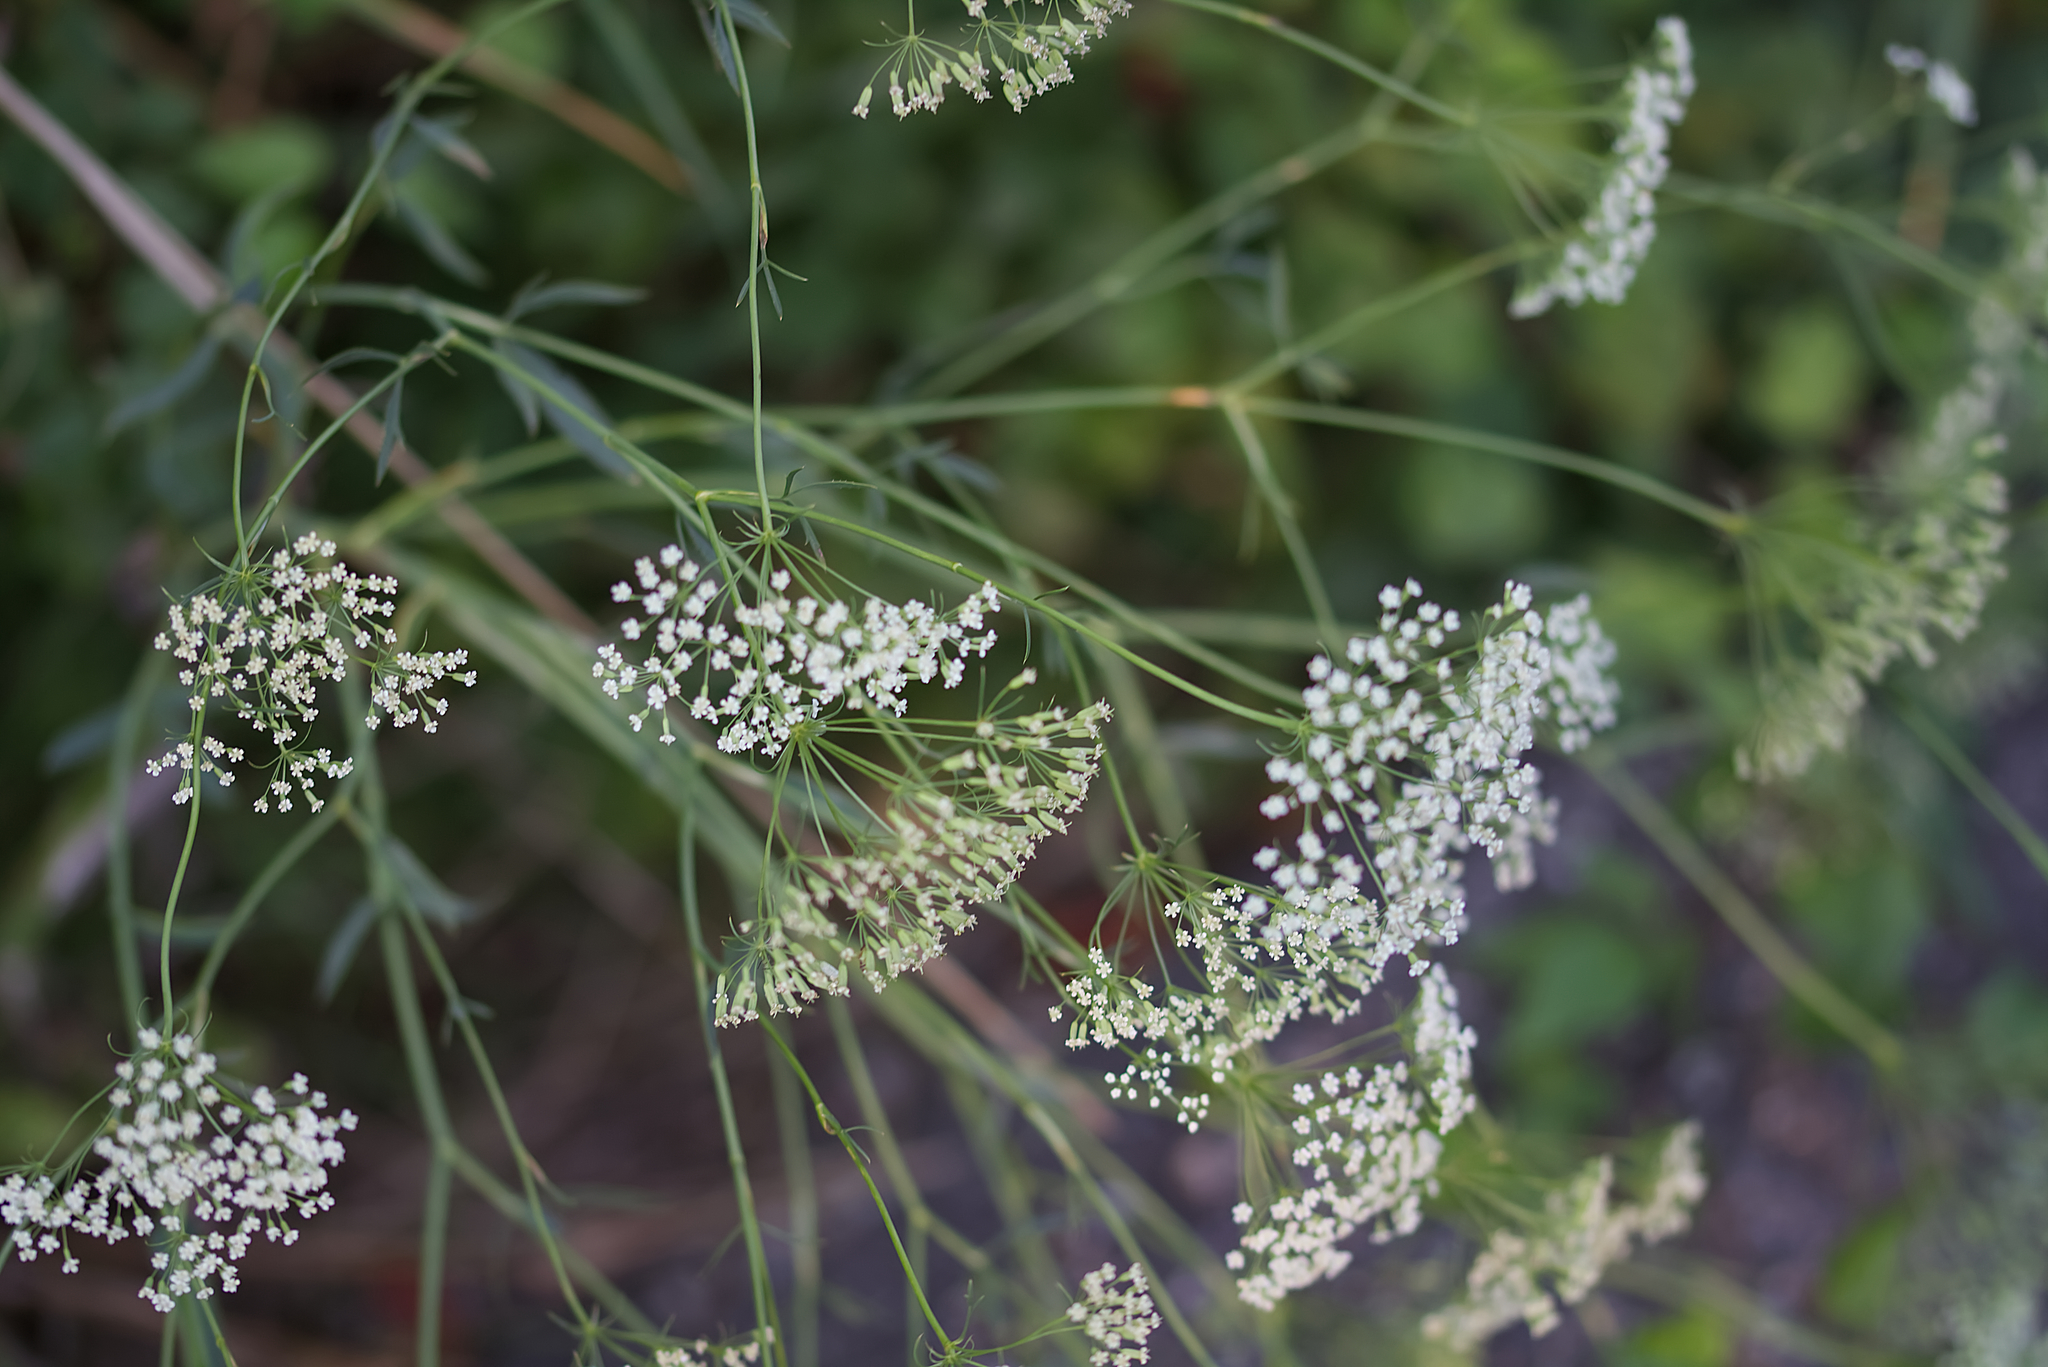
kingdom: Plantae
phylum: Tracheophyta
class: Magnoliopsida
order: Apiales
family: Apiaceae
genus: Falcaria
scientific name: Falcaria vulgaris
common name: Longleaf
